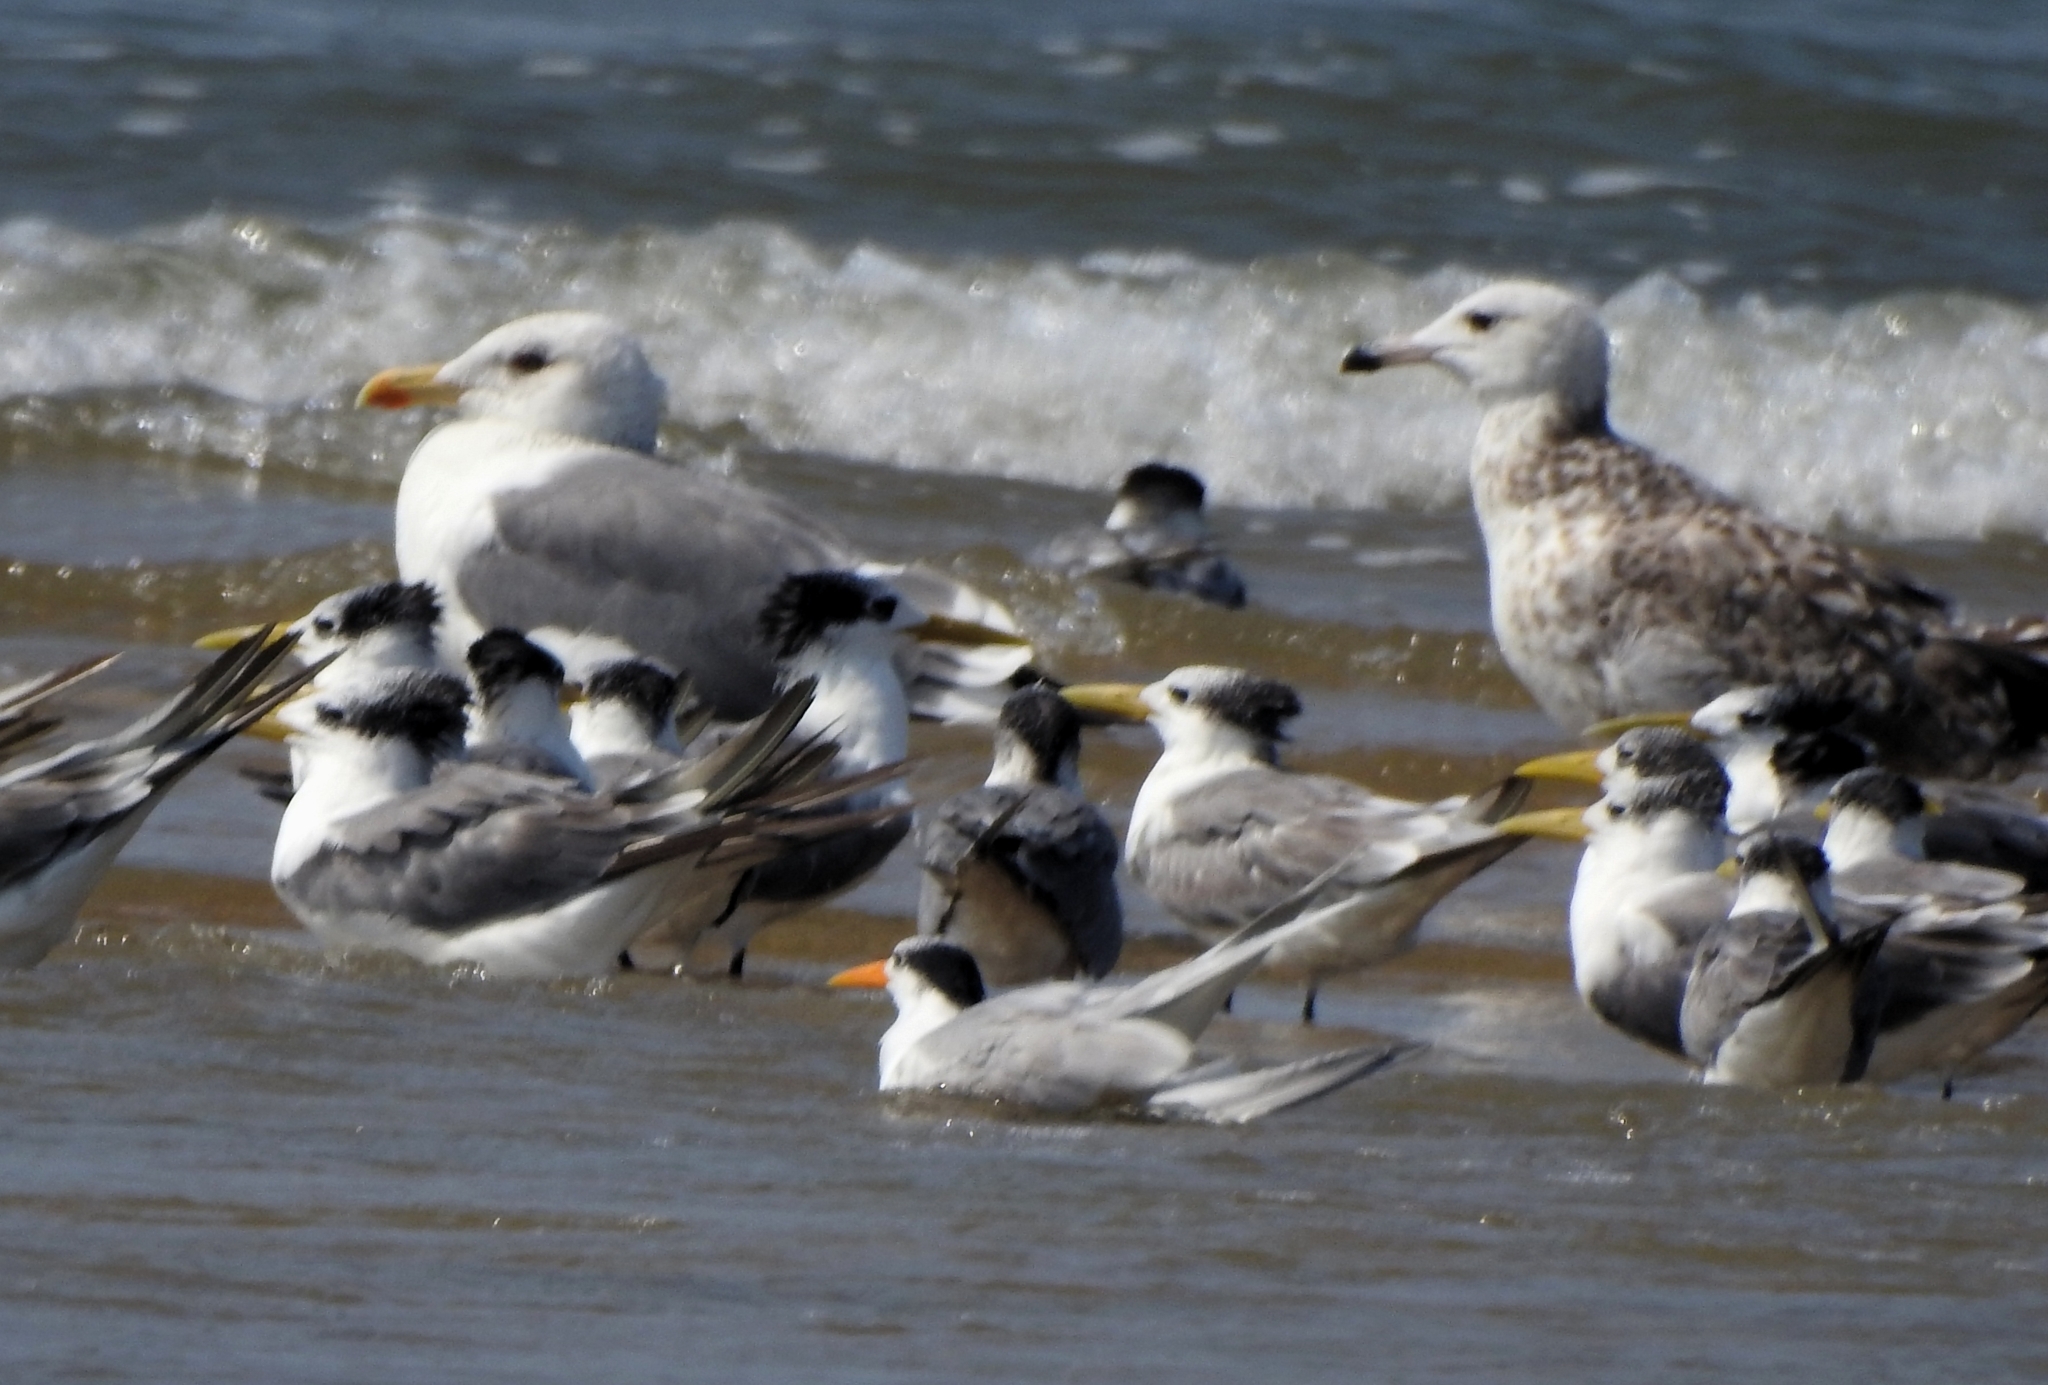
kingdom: Animalia
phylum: Chordata
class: Aves
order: Charadriiformes
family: Laridae
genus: Larus
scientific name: Larus fuscus
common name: Lesser black-backed gull
